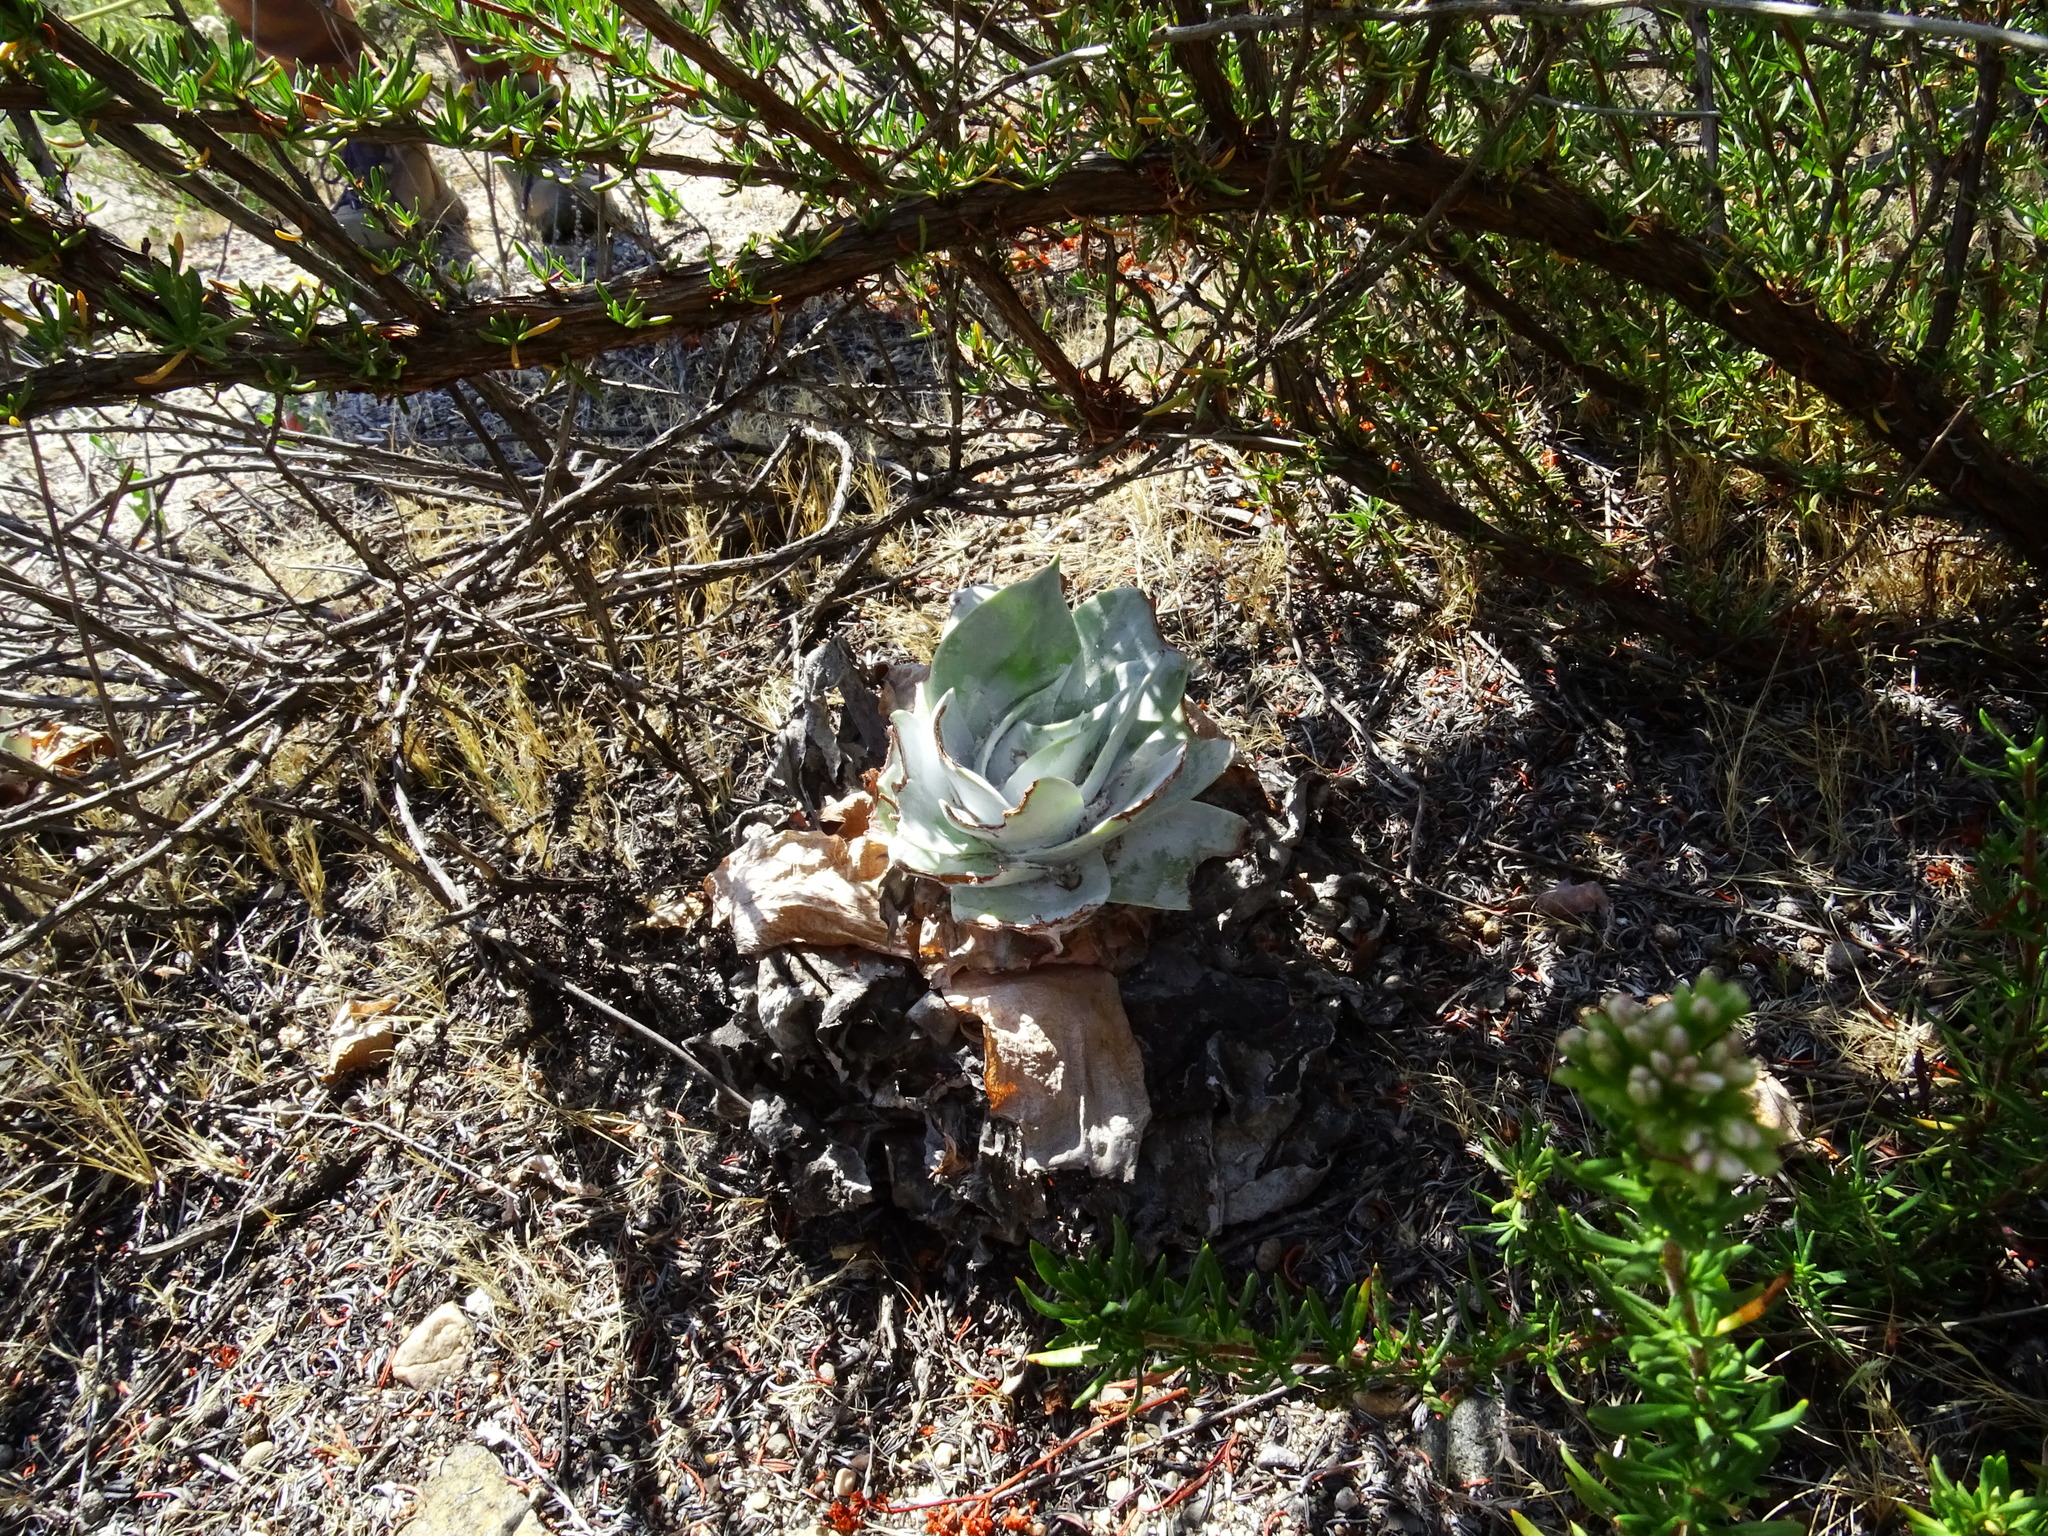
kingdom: Plantae
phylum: Tracheophyta
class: Magnoliopsida
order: Saxifragales
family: Crassulaceae
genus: Dudleya
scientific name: Dudleya pulverulenta
